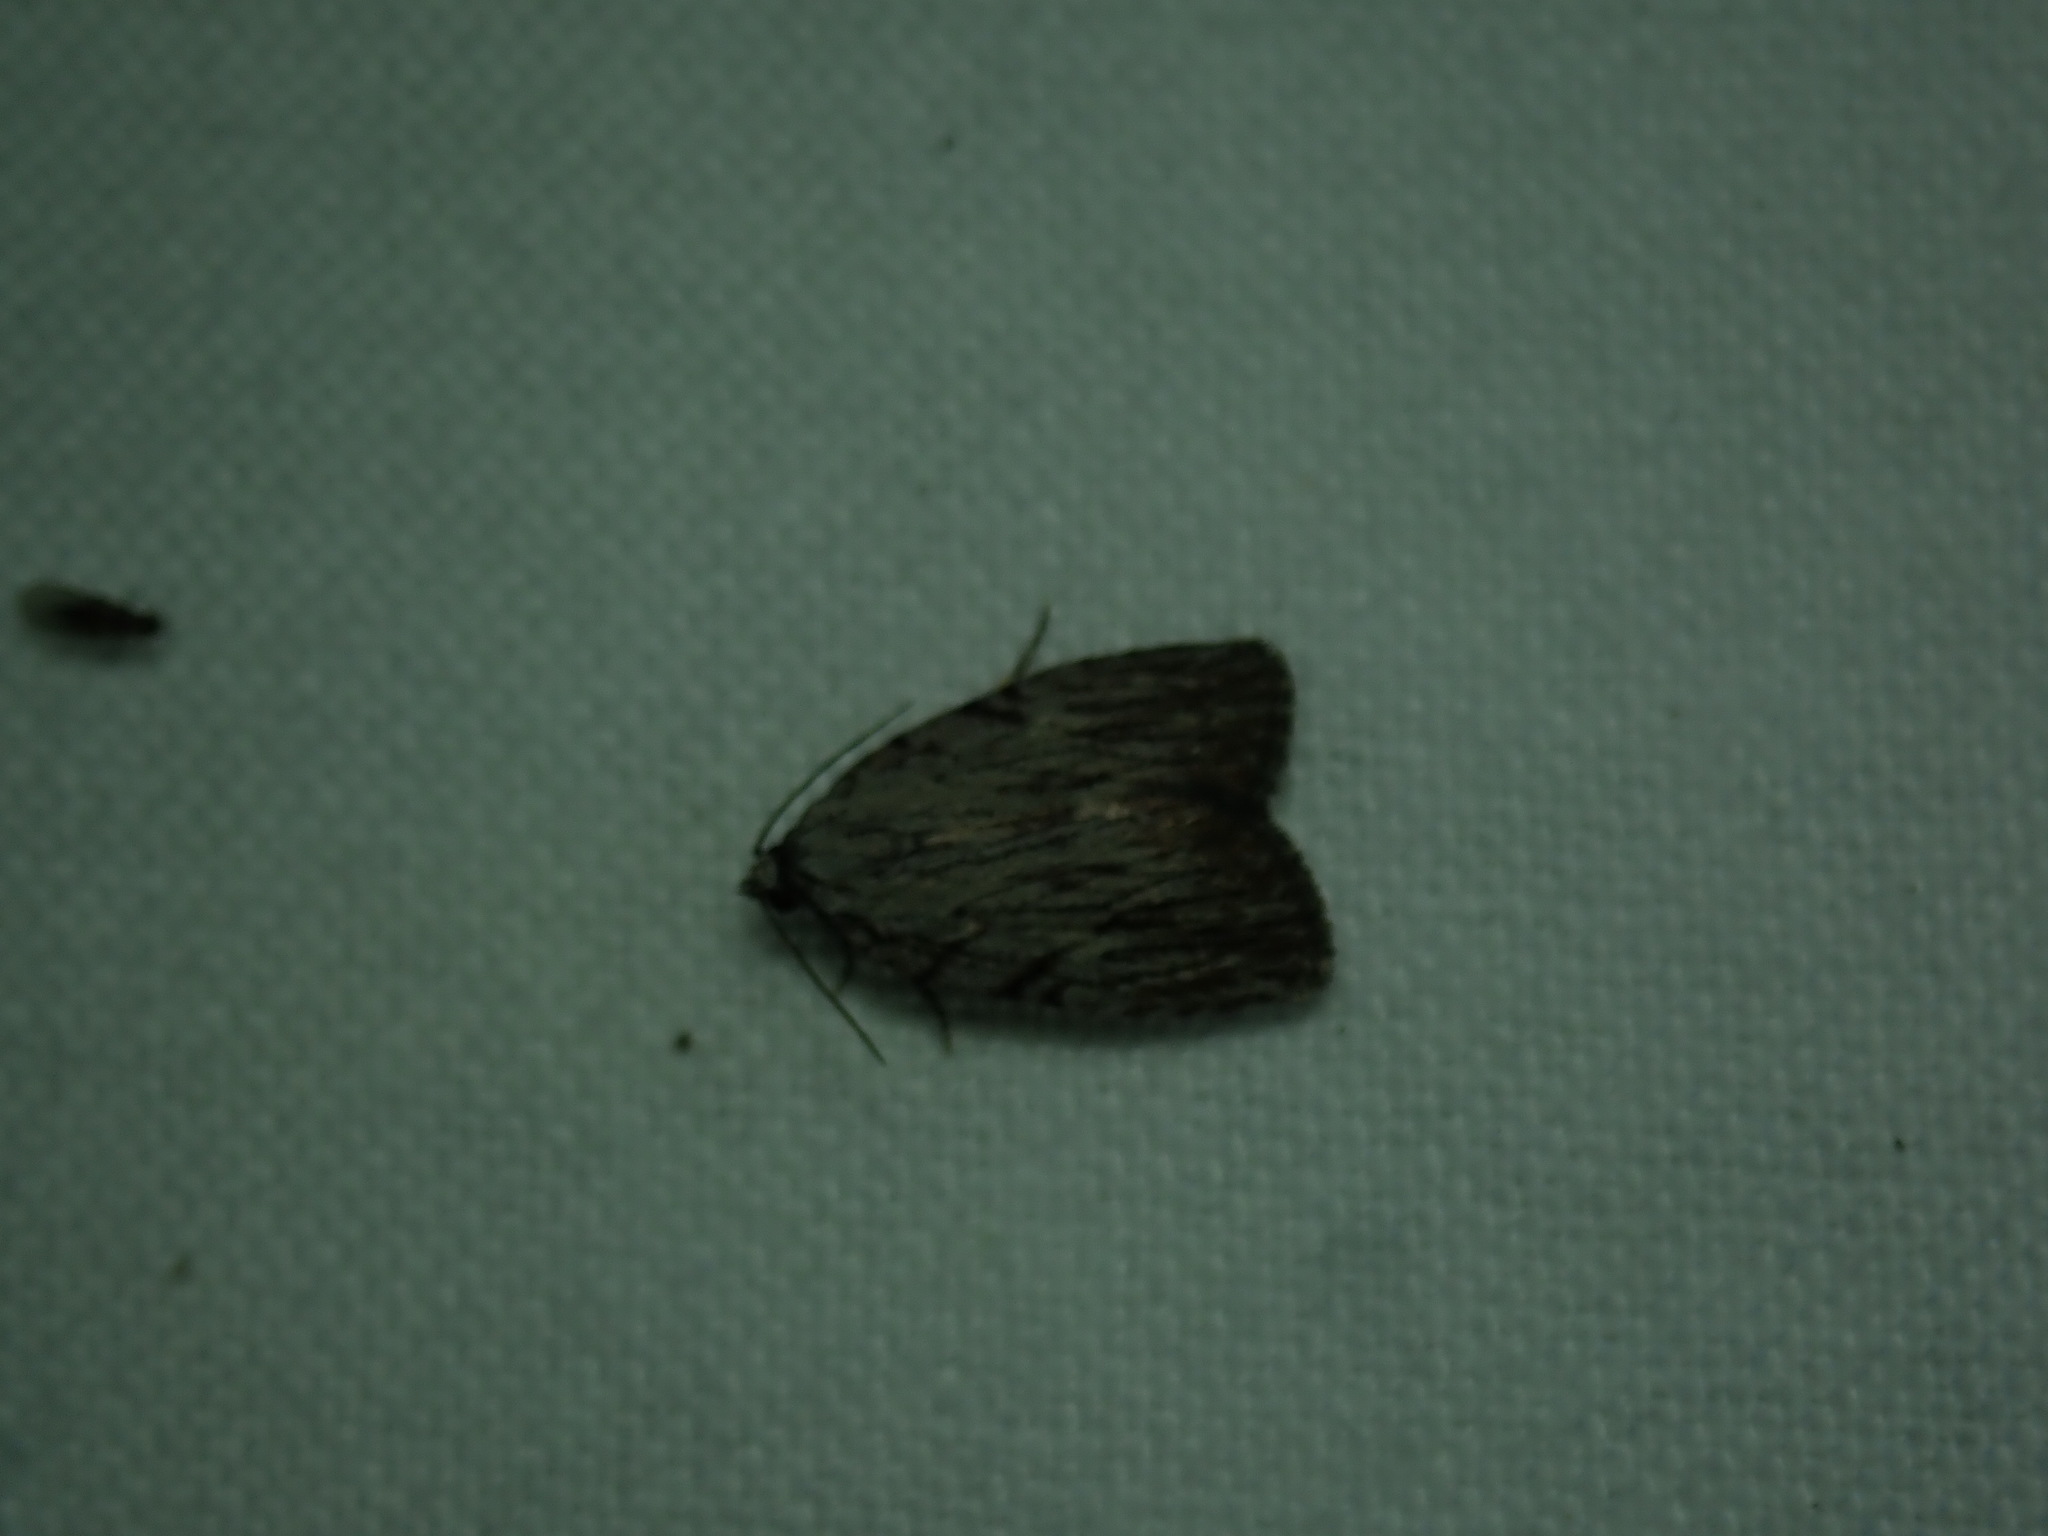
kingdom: Animalia
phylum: Arthropoda
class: Insecta
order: Lepidoptera
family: Noctuidae
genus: Balsa
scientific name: Balsa tristrigella
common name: Three-lined balsa moth
